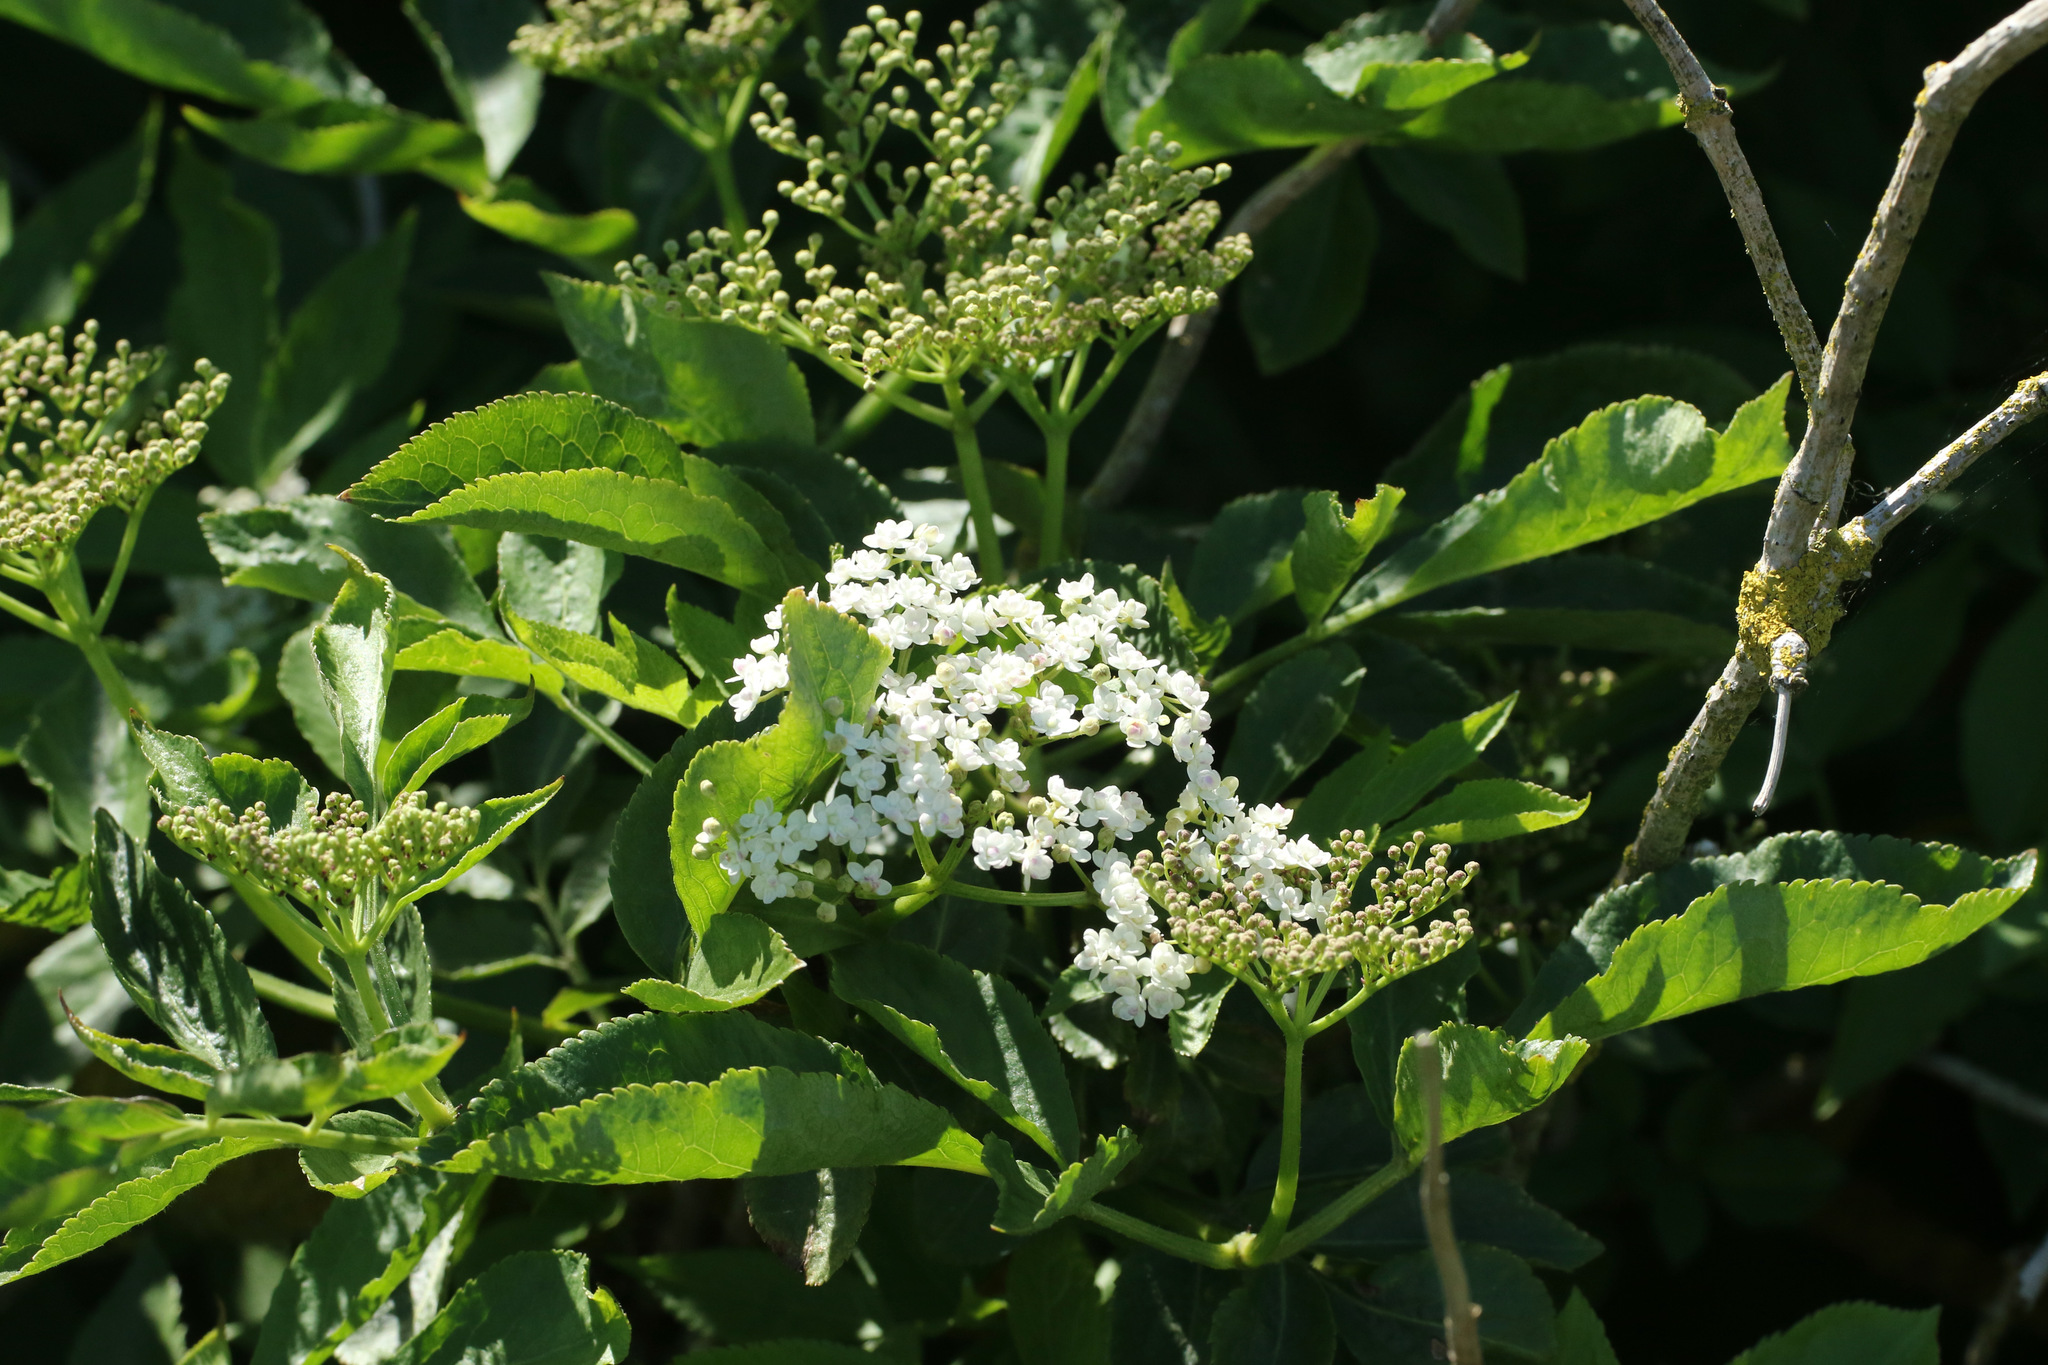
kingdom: Plantae
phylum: Tracheophyta
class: Magnoliopsida
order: Dipsacales
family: Viburnaceae
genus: Sambucus
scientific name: Sambucus nigra
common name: Elder
